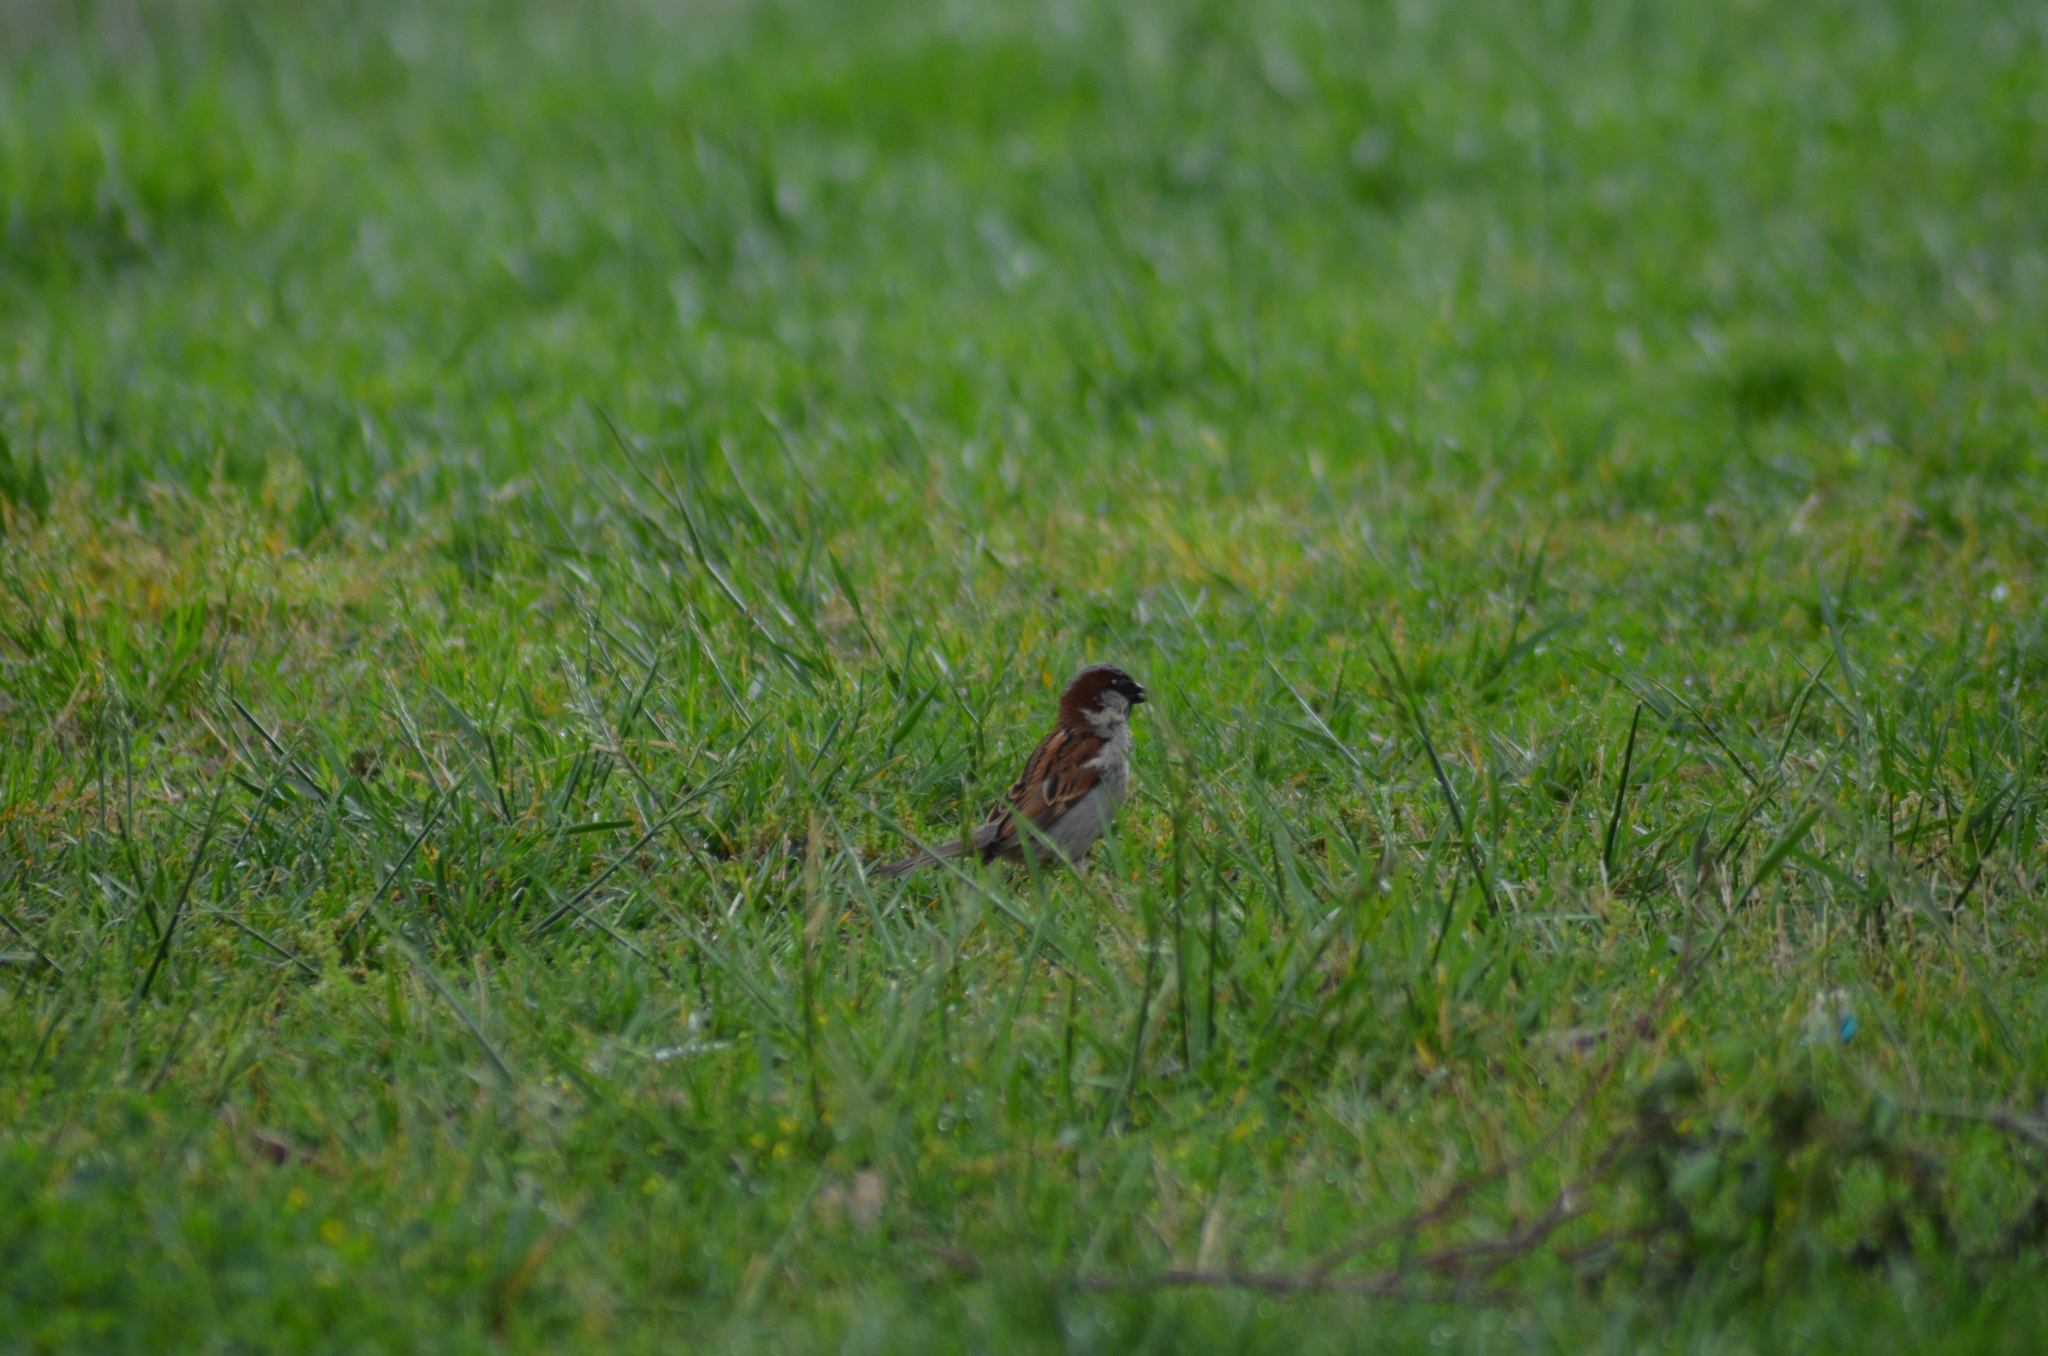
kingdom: Animalia
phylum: Chordata
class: Aves
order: Passeriformes
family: Passeridae
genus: Passer
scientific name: Passer domesticus
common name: House sparrow
